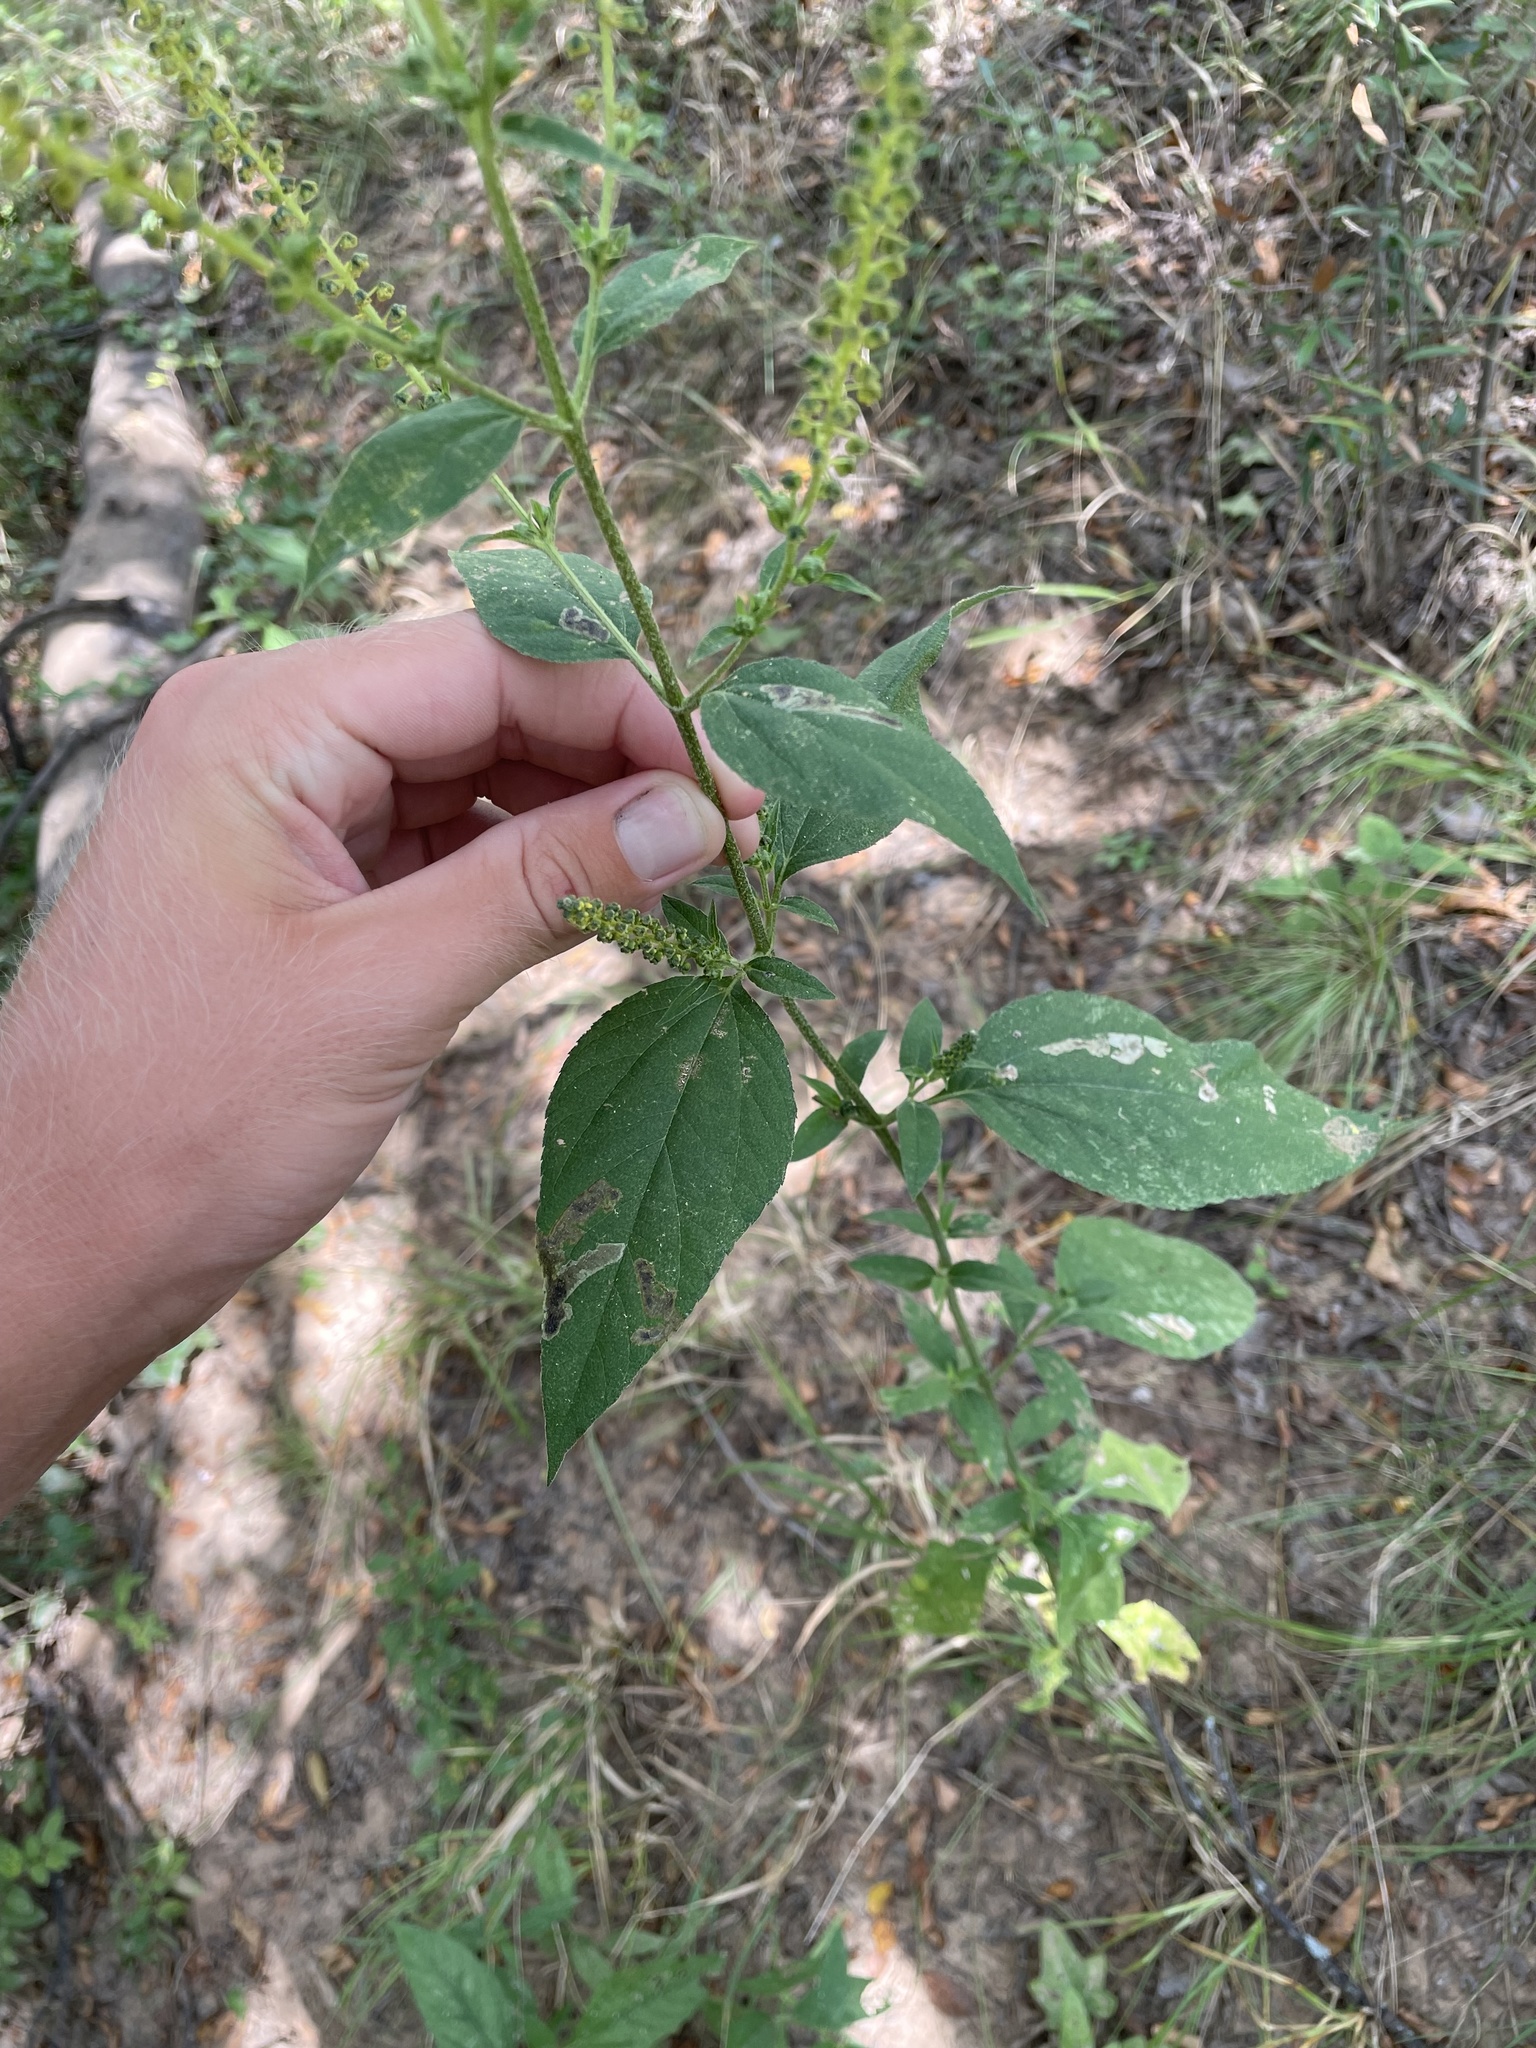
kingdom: Plantae
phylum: Tracheophyta
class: Magnoliopsida
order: Asterales
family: Asteraceae
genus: Ambrosia
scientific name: Ambrosia trifida
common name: Giant ragweed
